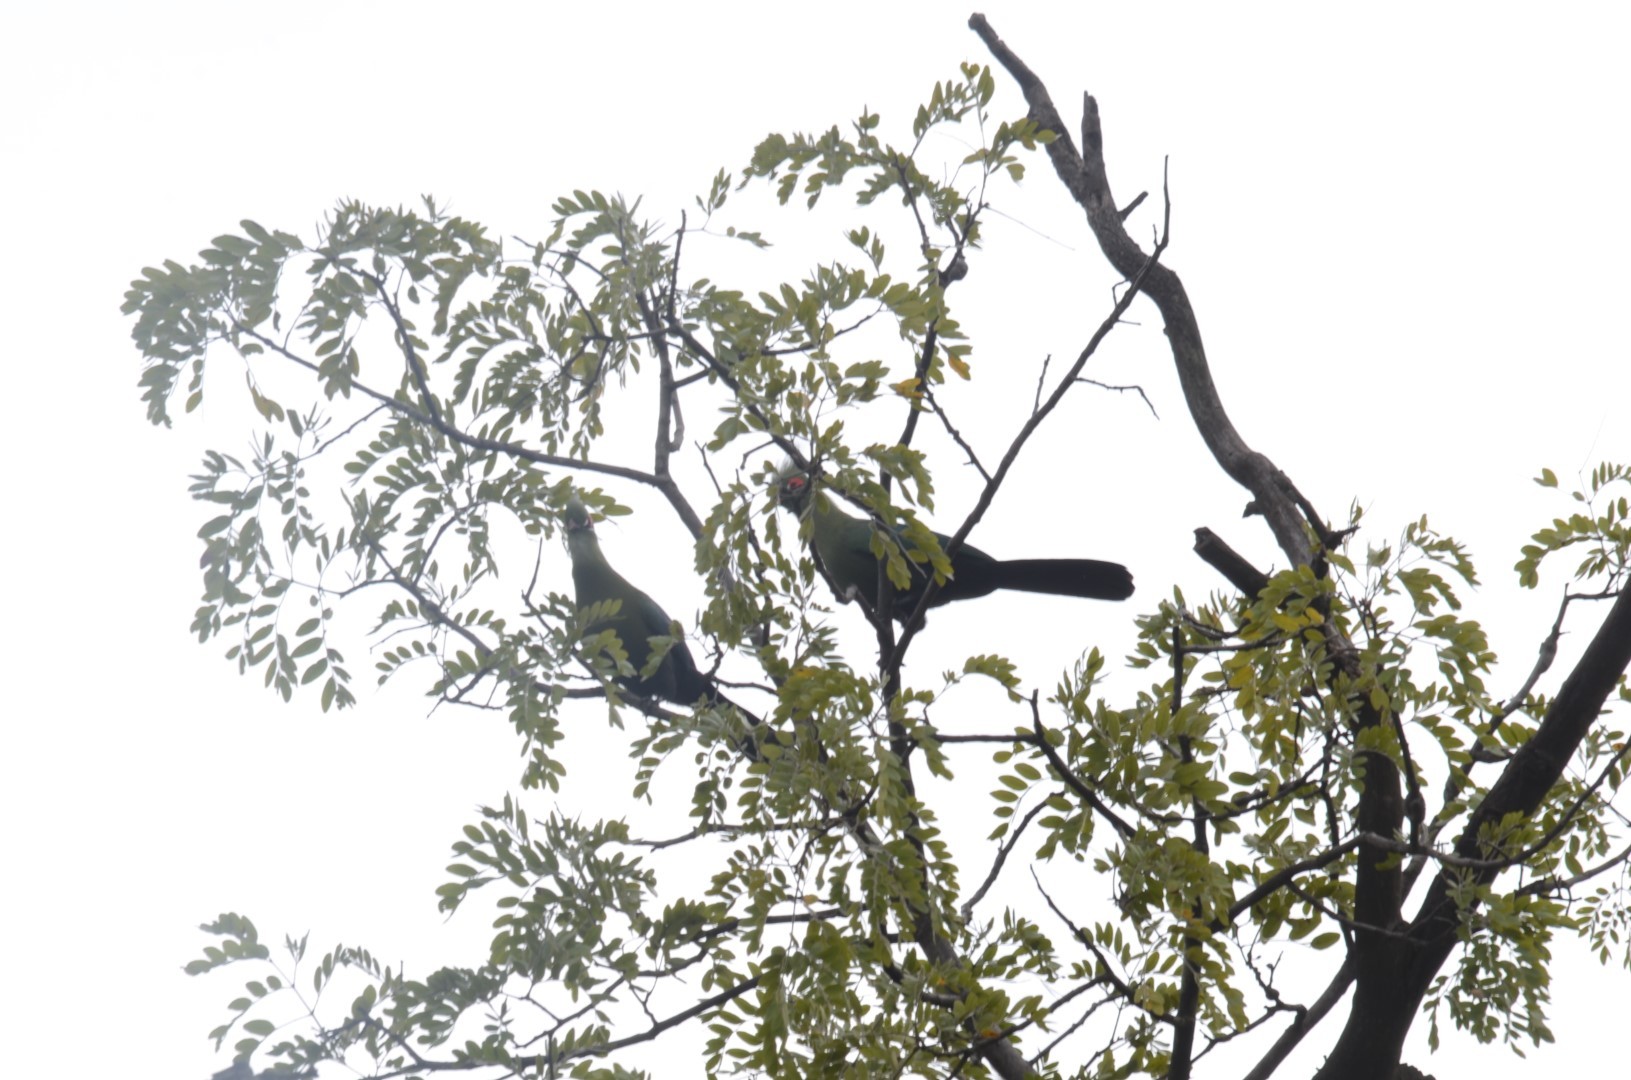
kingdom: Animalia
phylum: Chordata
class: Aves
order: Musophagiformes
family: Musophagidae
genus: Tauraco
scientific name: Tauraco schalowi
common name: Schalow's turaco
